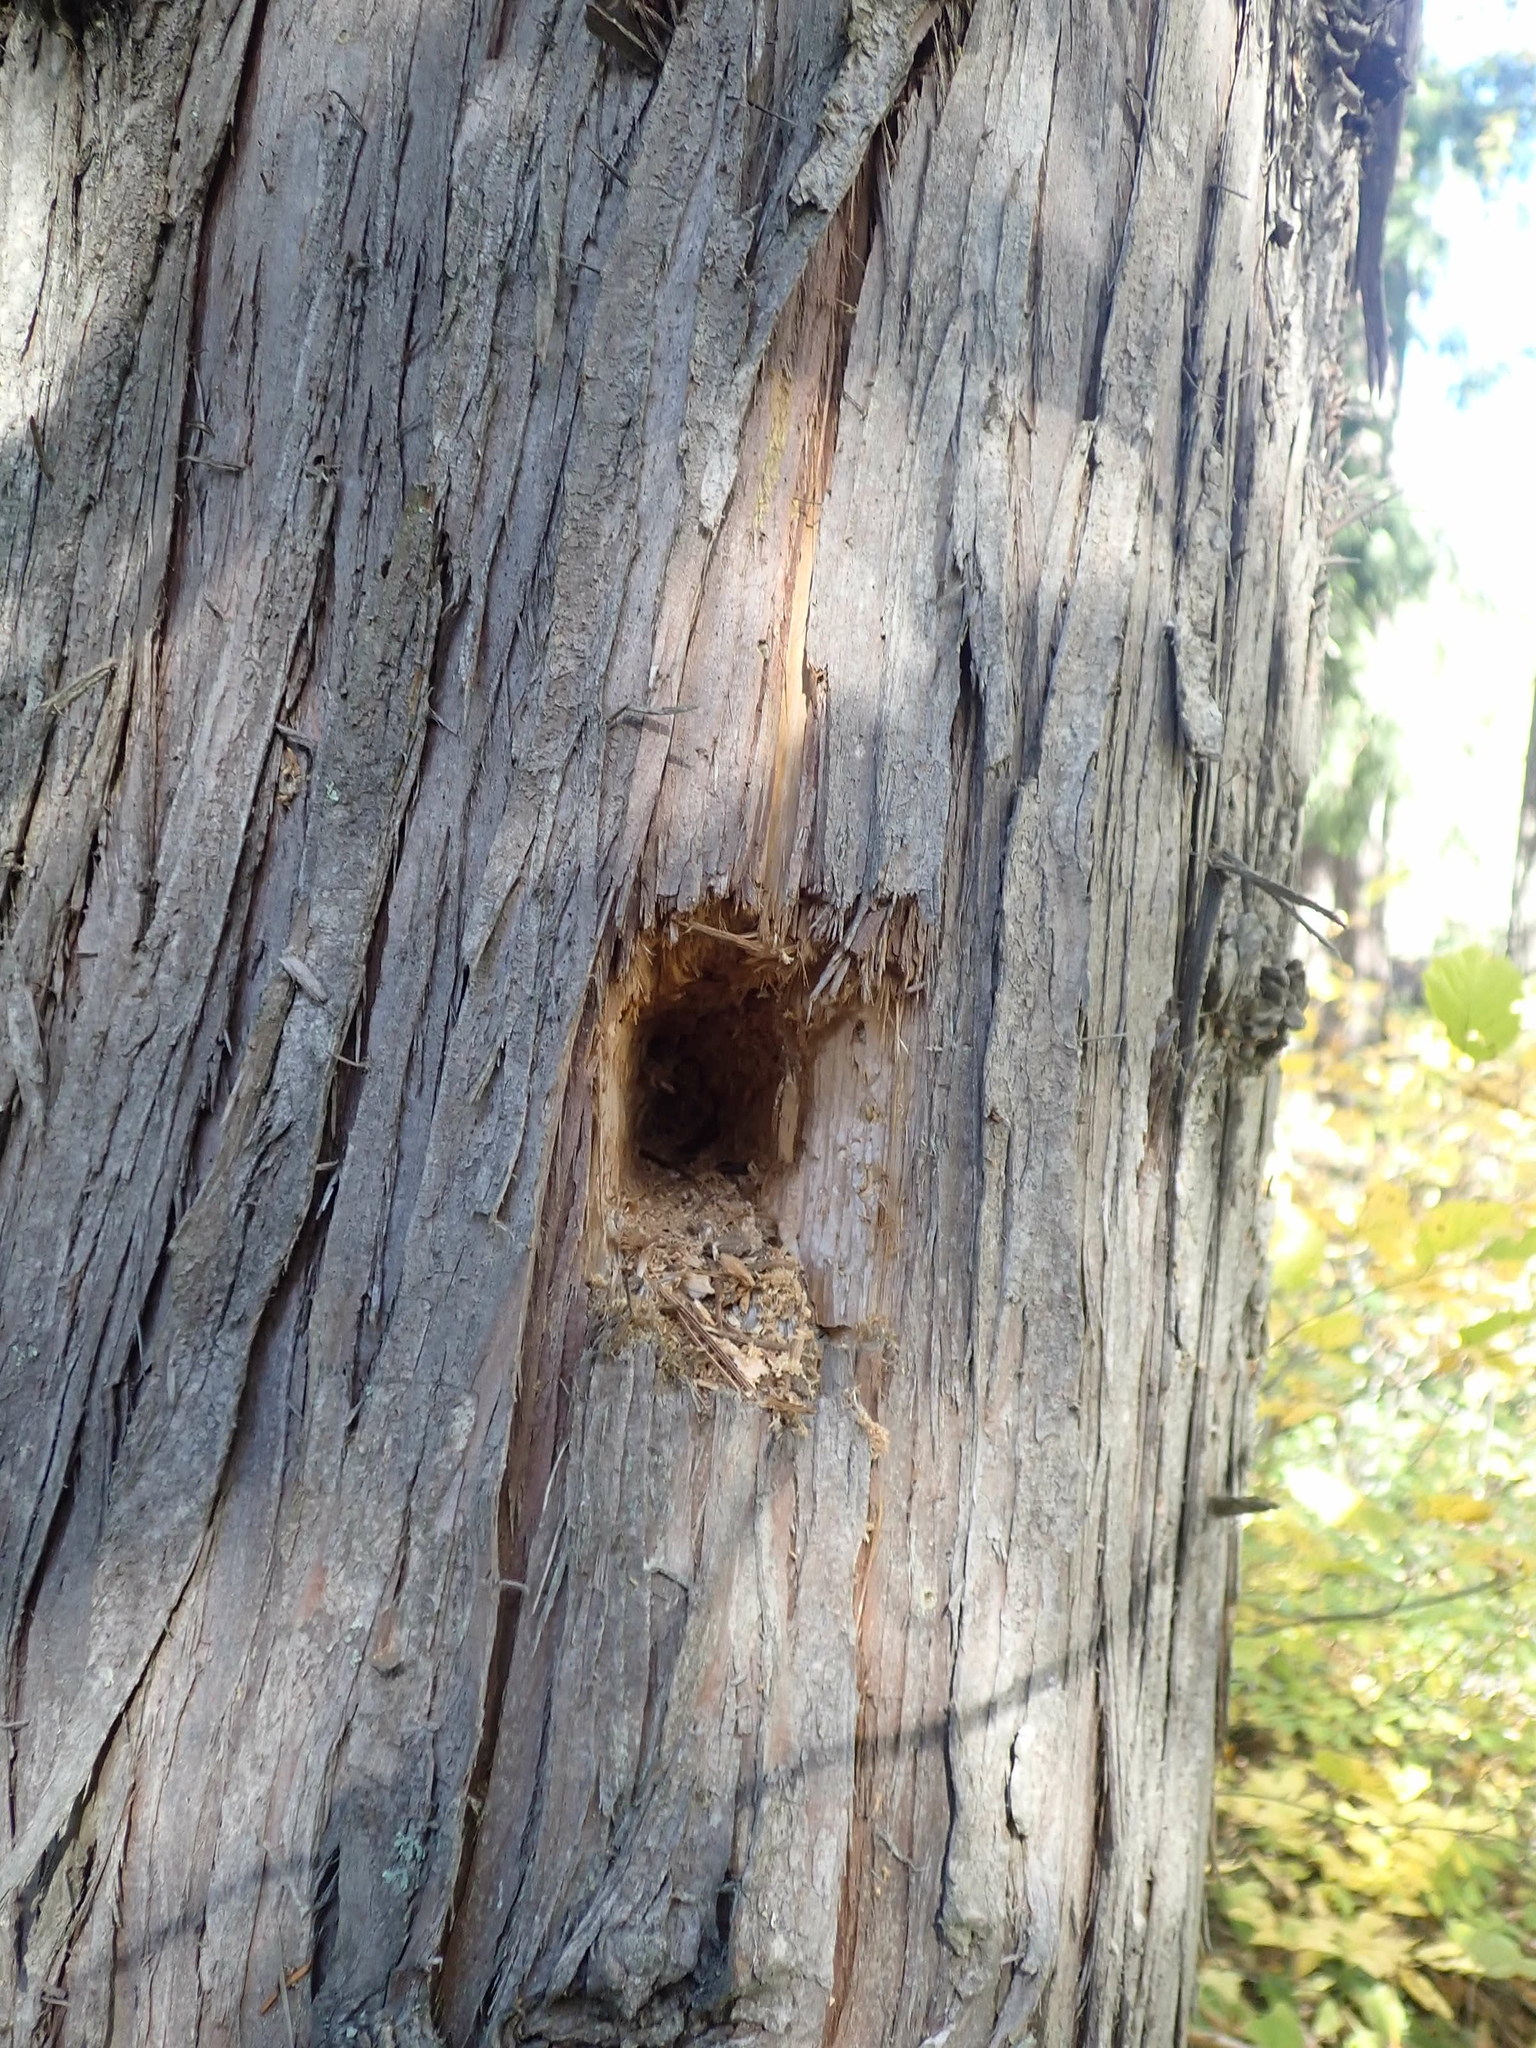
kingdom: Animalia
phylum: Chordata
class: Aves
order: Piciformes
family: Picidae
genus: Dryocopus
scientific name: Dryocopus pileatus
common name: Pileated woodpecker
